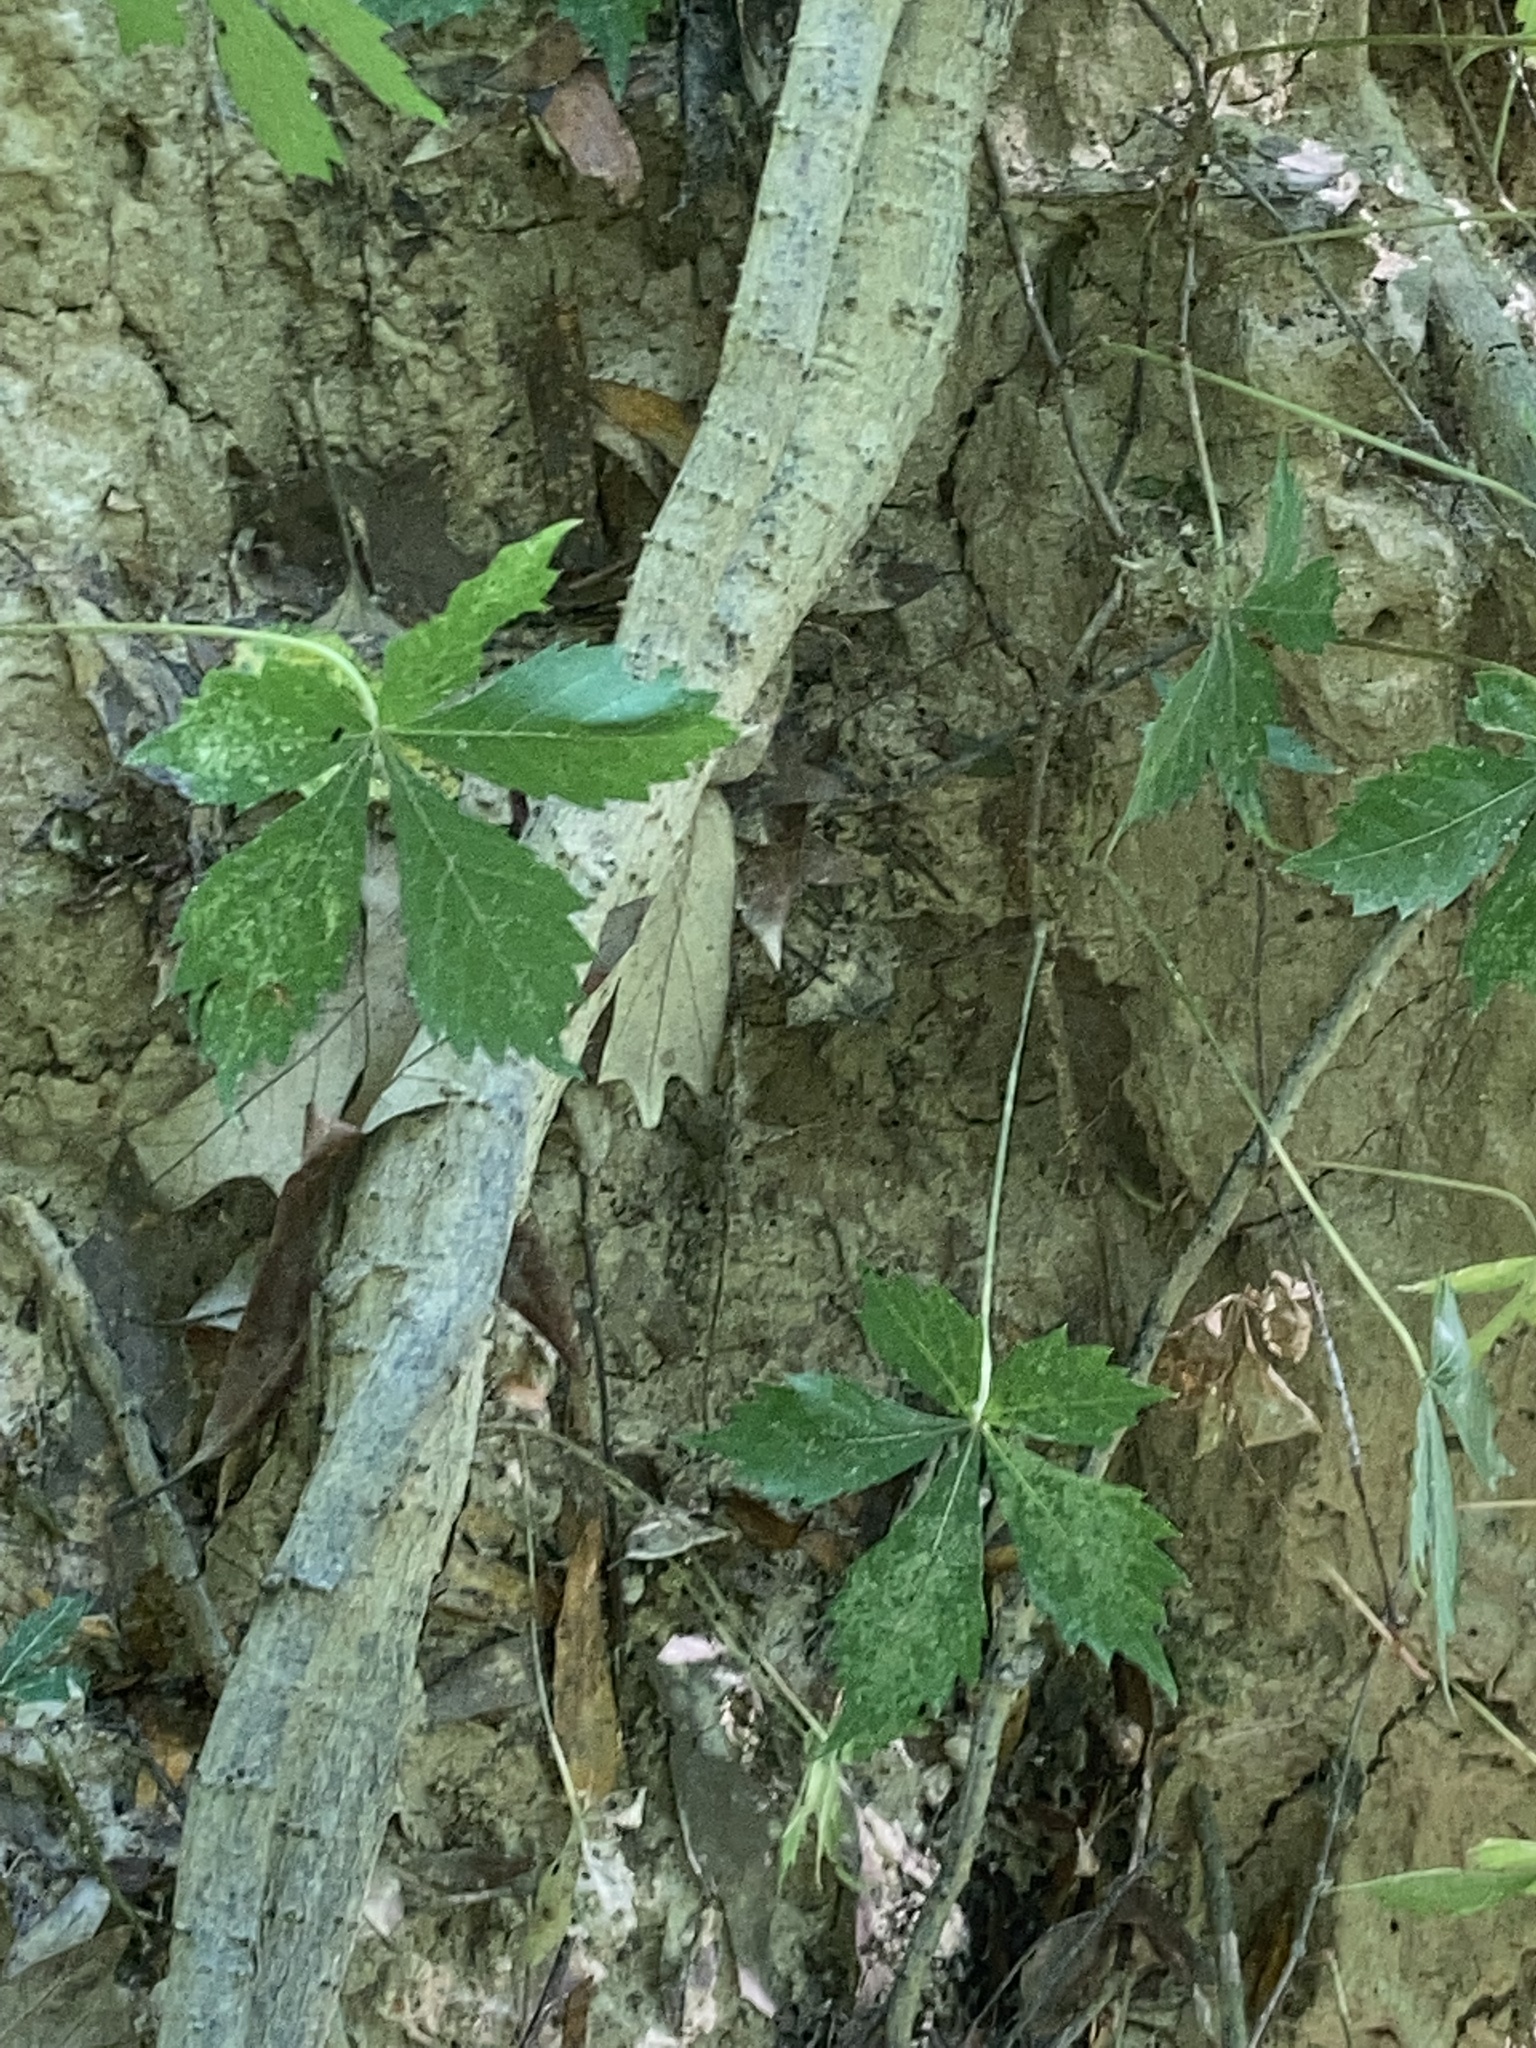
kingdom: Plantae
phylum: Tracheophyta
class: Magnoliopsida
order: Vitales
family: Vitaceae
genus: Parthenocissus
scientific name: Parthenocissus quinquefolia
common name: Virginia-creeper
